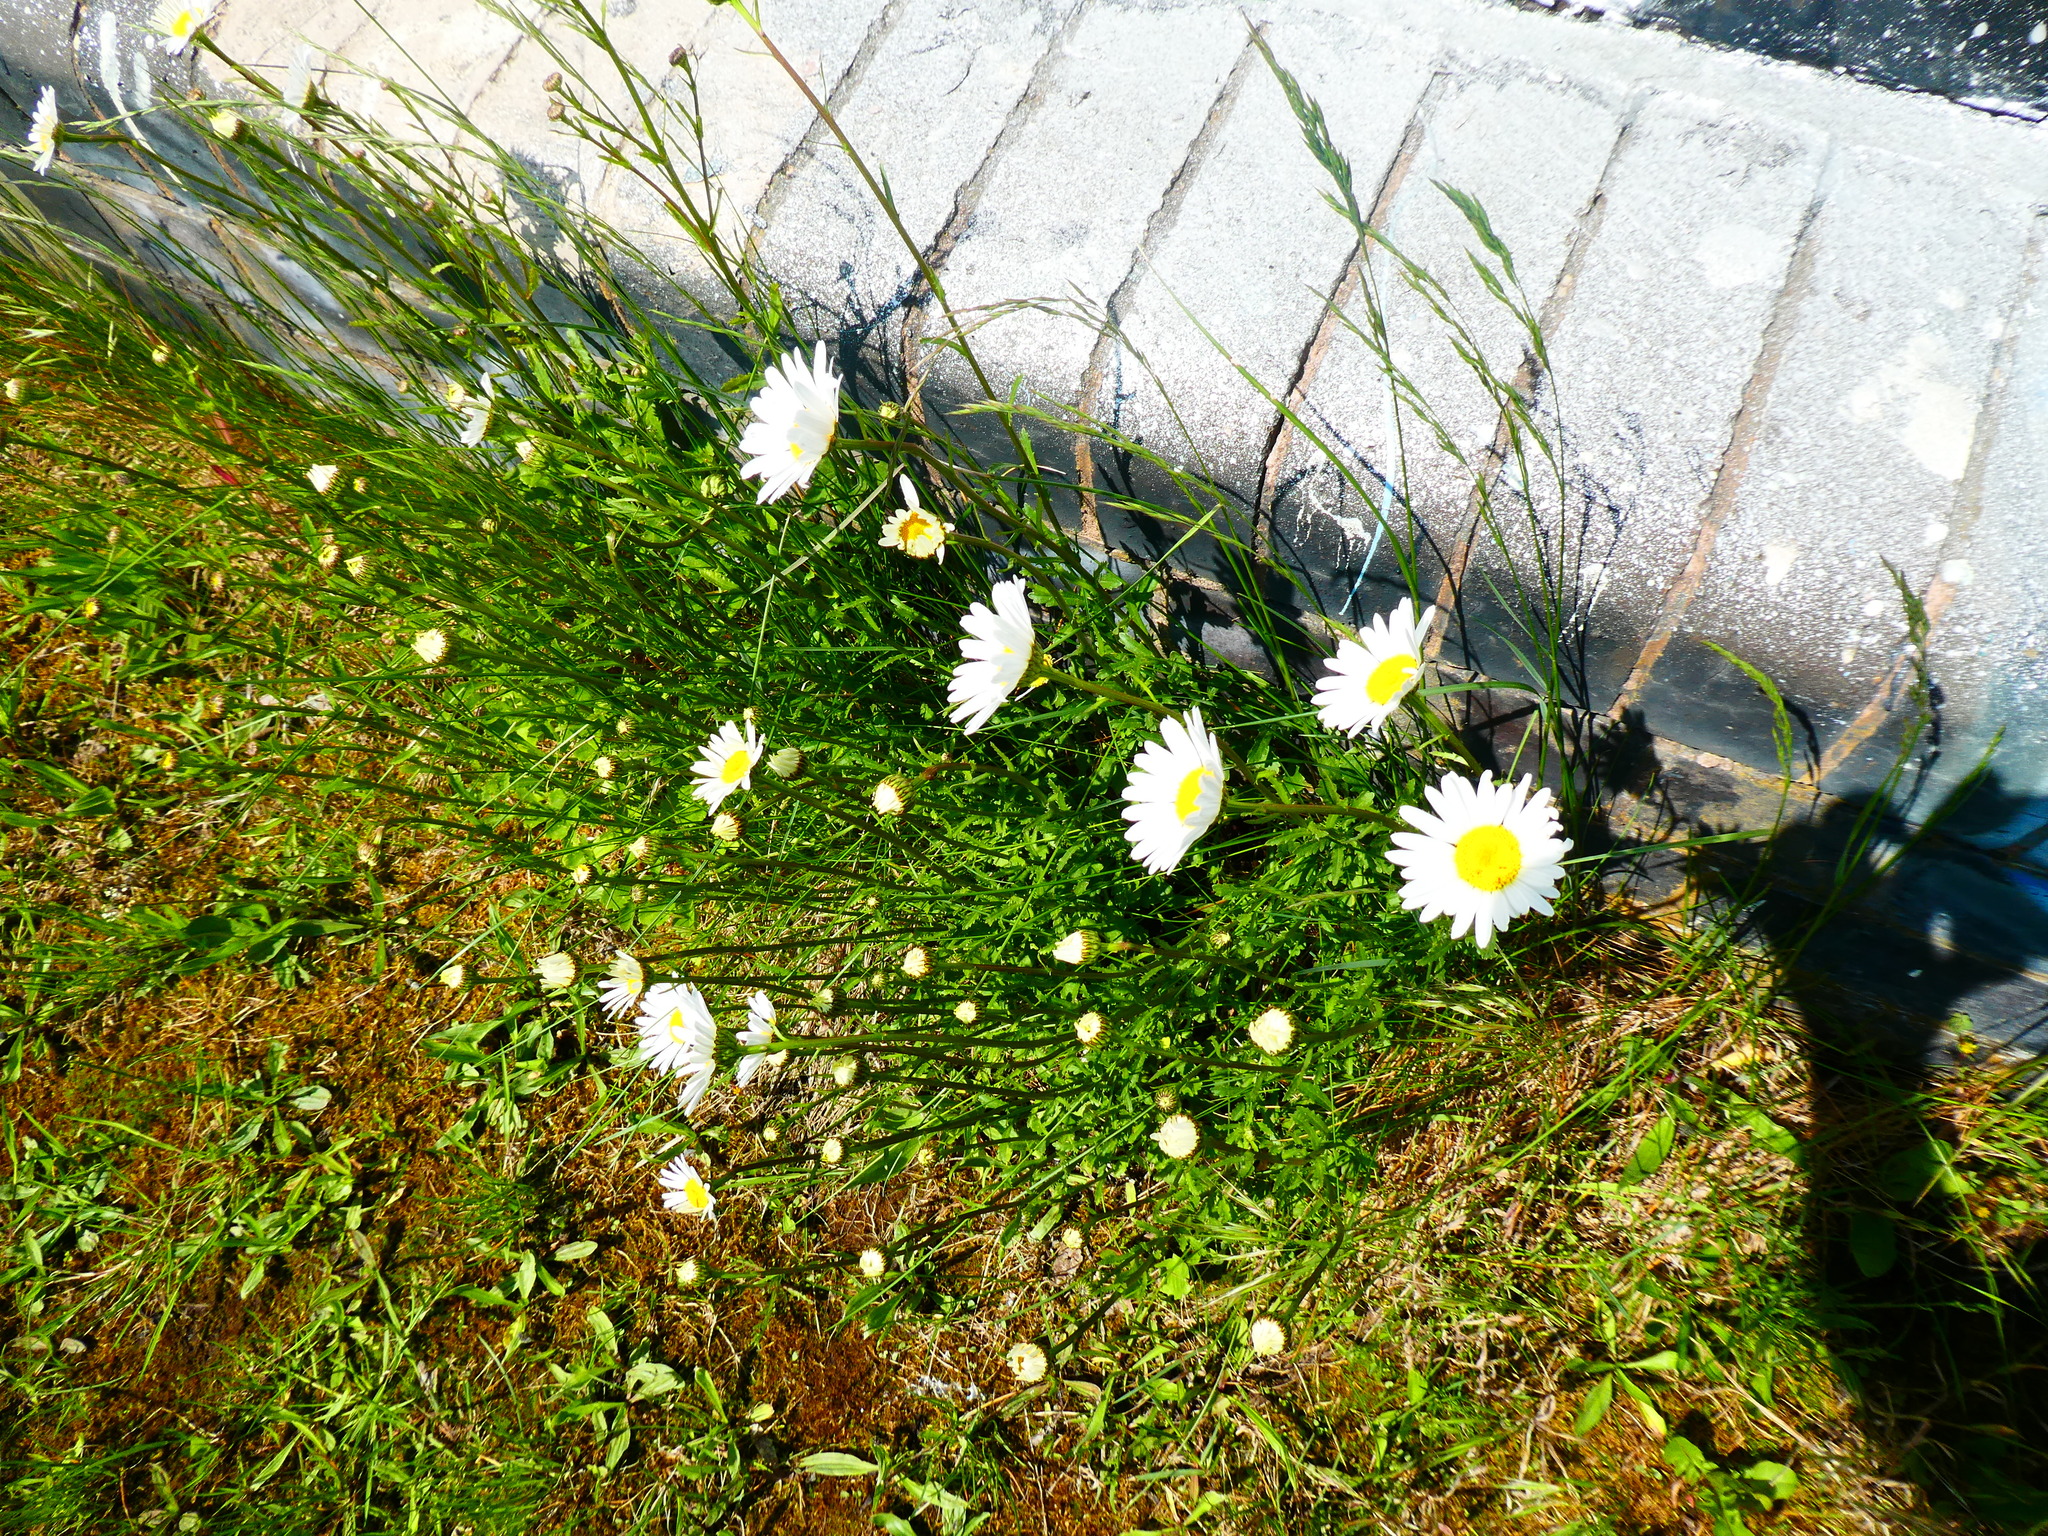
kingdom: Plantae
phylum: Tracheophyta
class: Magnoliopsida
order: Asterales
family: Asteraceae
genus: Leucanthemum
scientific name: Leucanthemum vulgare
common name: Oxeye daisy
